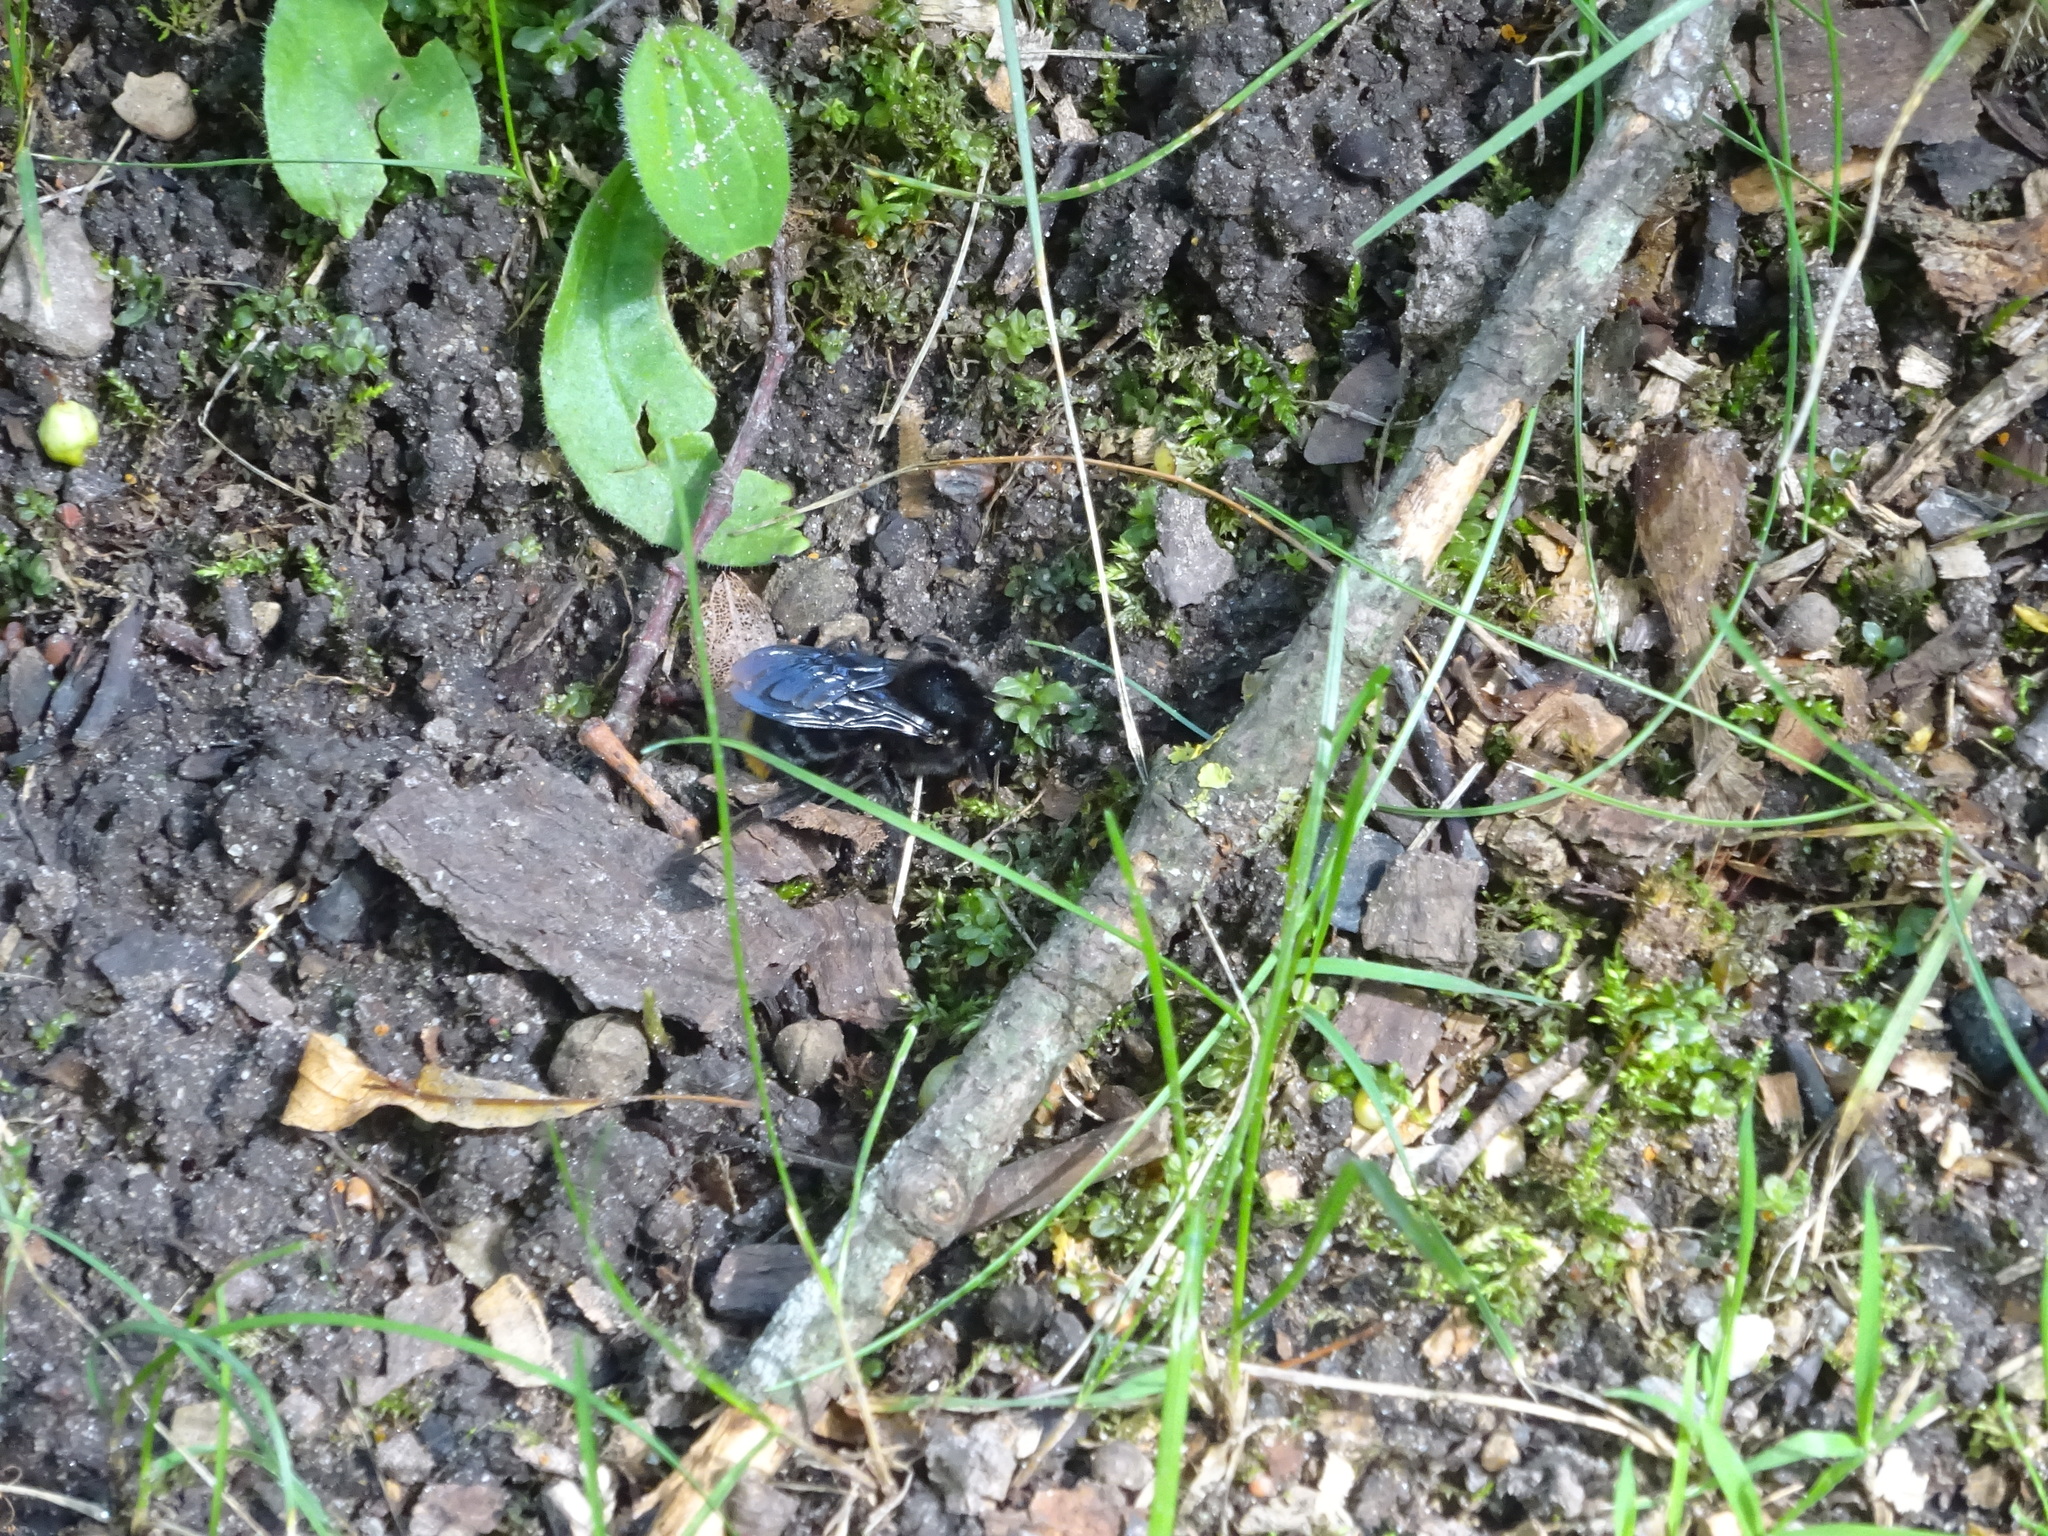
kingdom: Animalia
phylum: Arthropoda
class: Insecta
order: Hymenoptera
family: Apidae
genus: Bombus
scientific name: Bombus rupestris
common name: Hill cuckoo-bee
